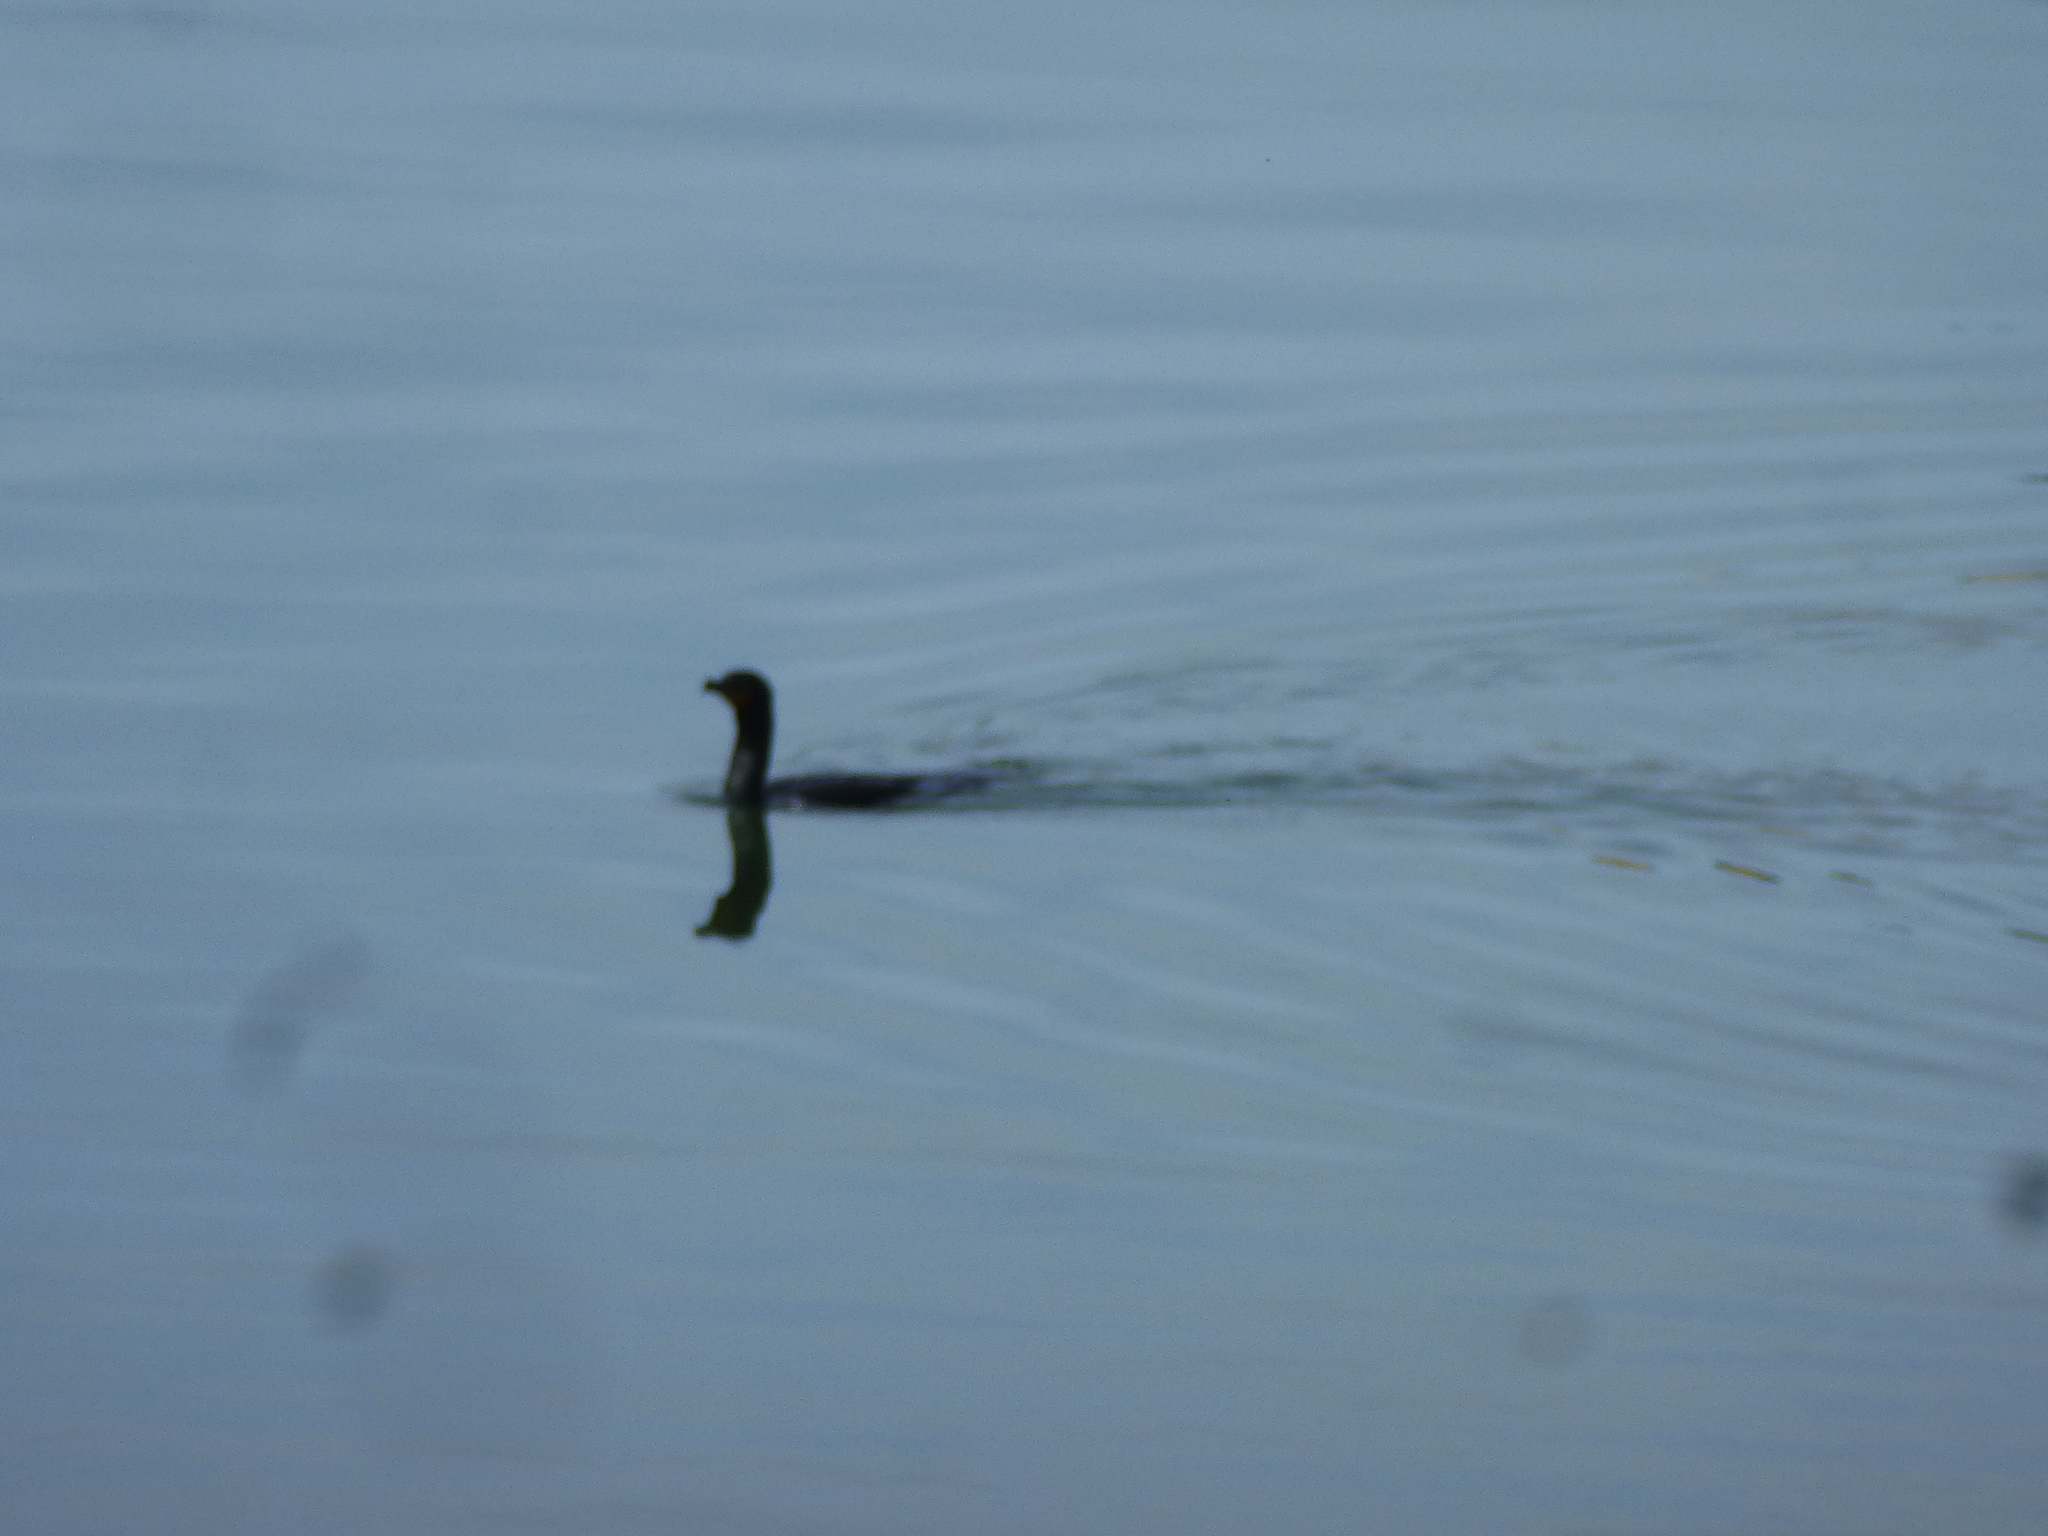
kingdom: Animalia
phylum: Chordata
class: Aves
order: Suliformes
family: Phalacrocoracidae
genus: Phalacrocorax
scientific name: Phalacrocorax auritus
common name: Double-crested cormorant
